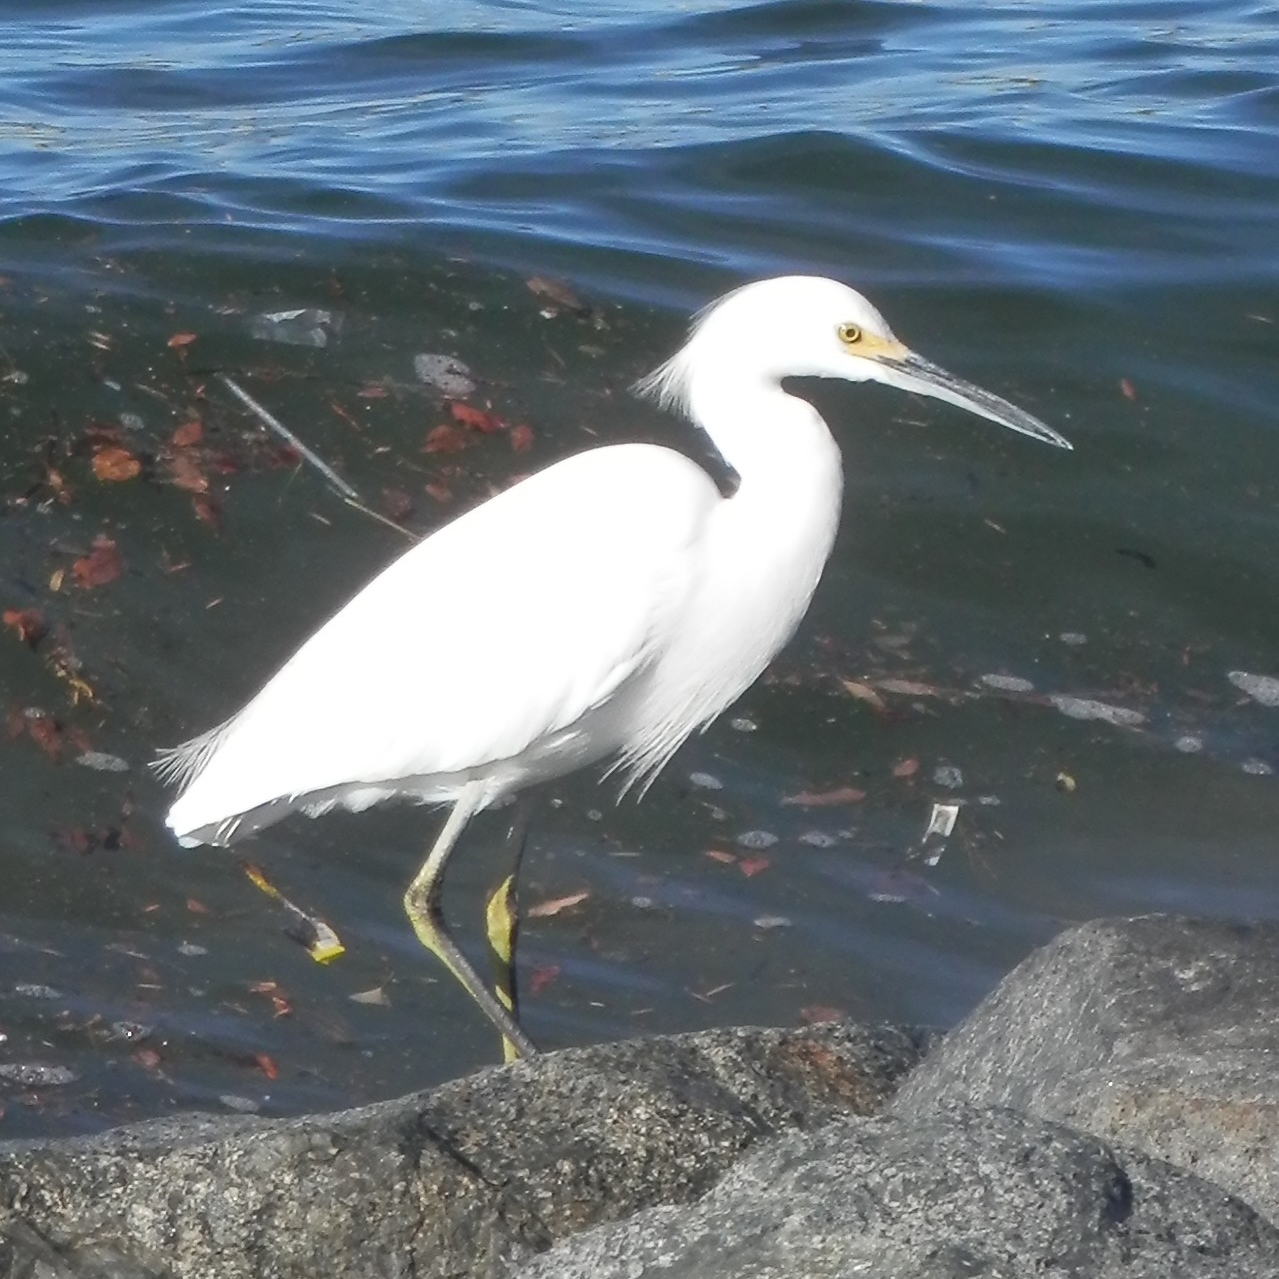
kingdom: Animalia
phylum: Chordata
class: Aves
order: Pelecaniformes
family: Ardeidae
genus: Egretta
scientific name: Egretta thula
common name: Snowy egret
